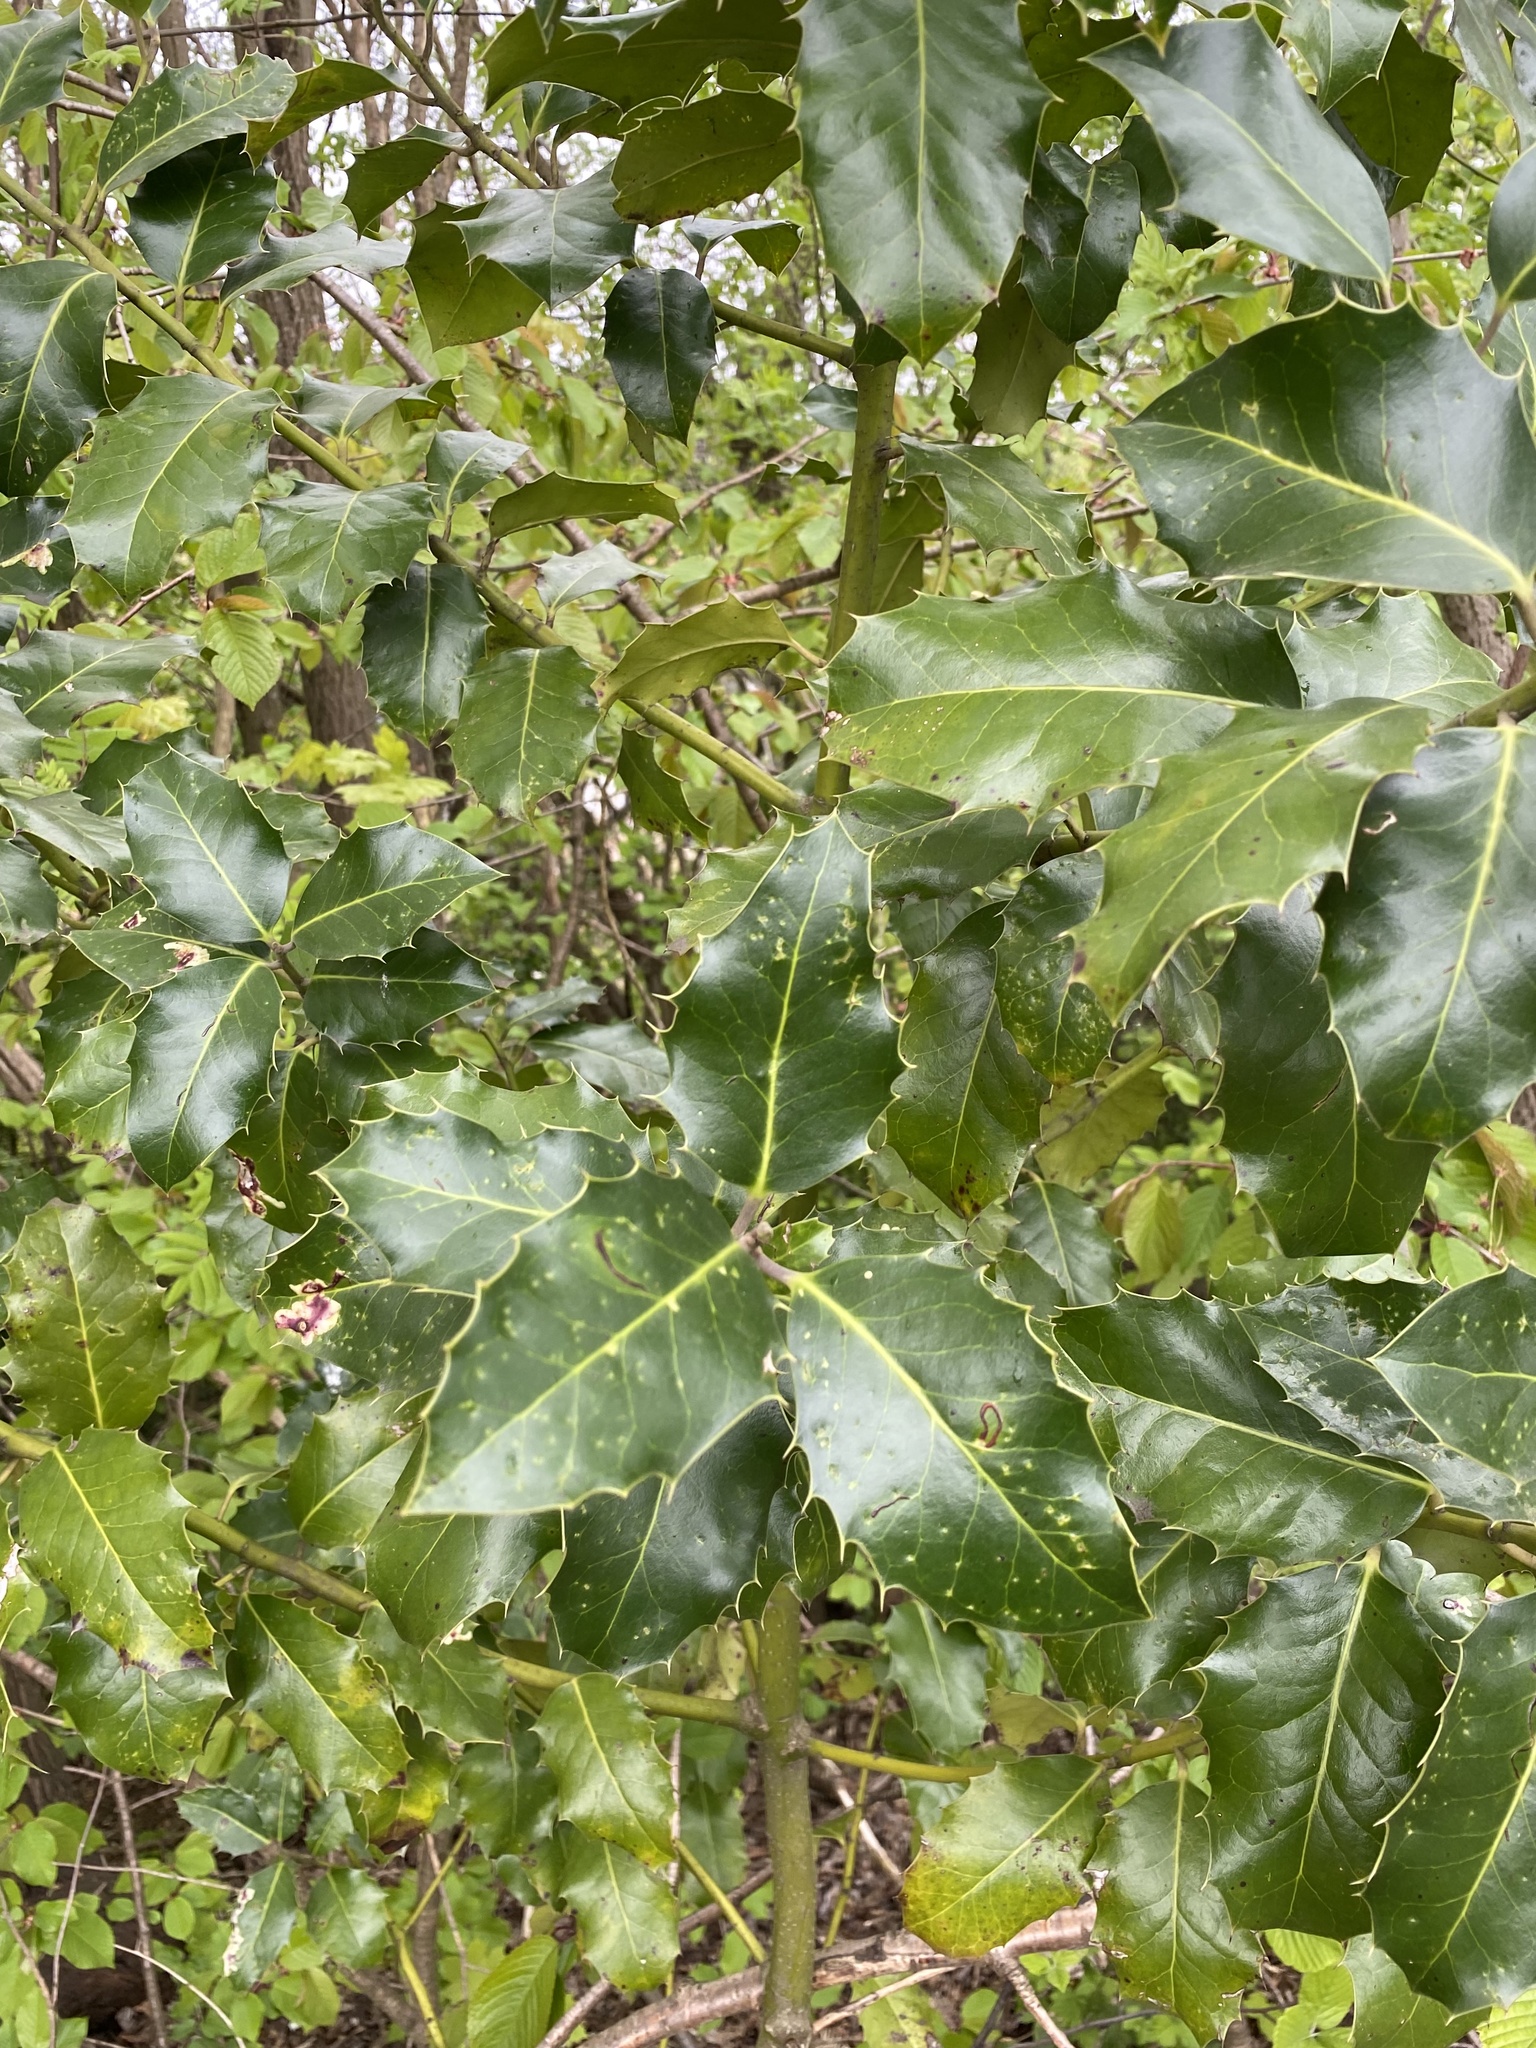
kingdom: Plantae
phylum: Tracheophyta
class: Magnoliopsida
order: Aquifoliales
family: Aquifoliaceae
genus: Ilex
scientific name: Ilex aquifolium
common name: English holly
